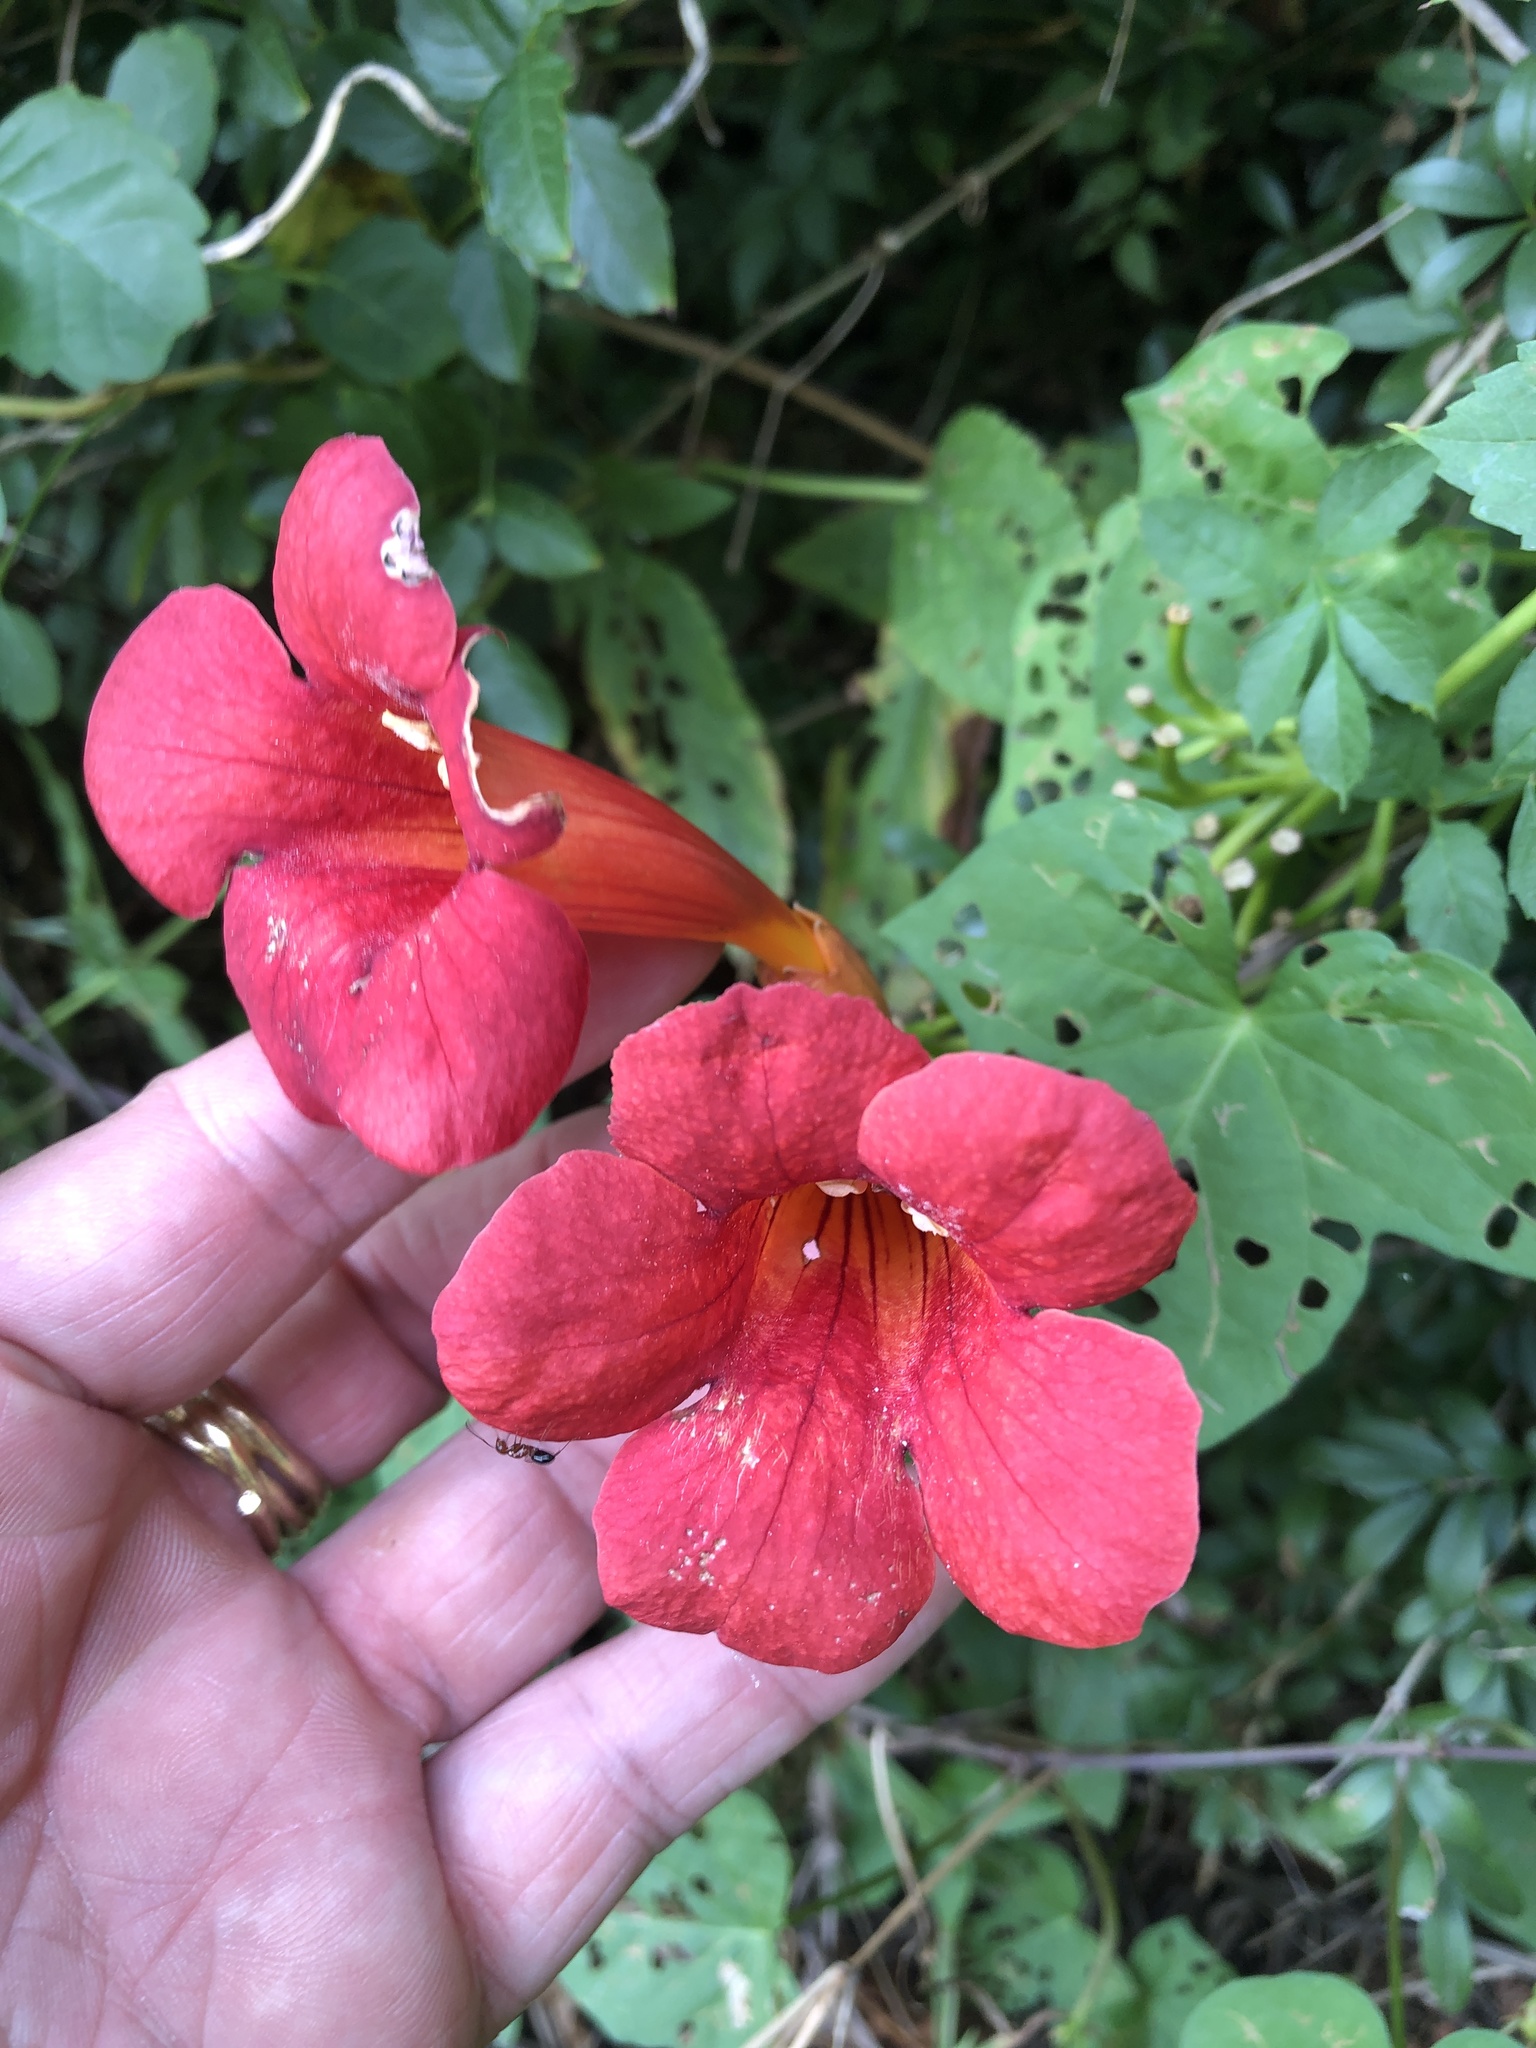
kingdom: Plantae
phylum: Tracheophyta
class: Magnoliopsida
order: Lamiales
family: Bignoniaceae
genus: Campsis
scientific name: Campsis radicans
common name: Trumpet-creeper
